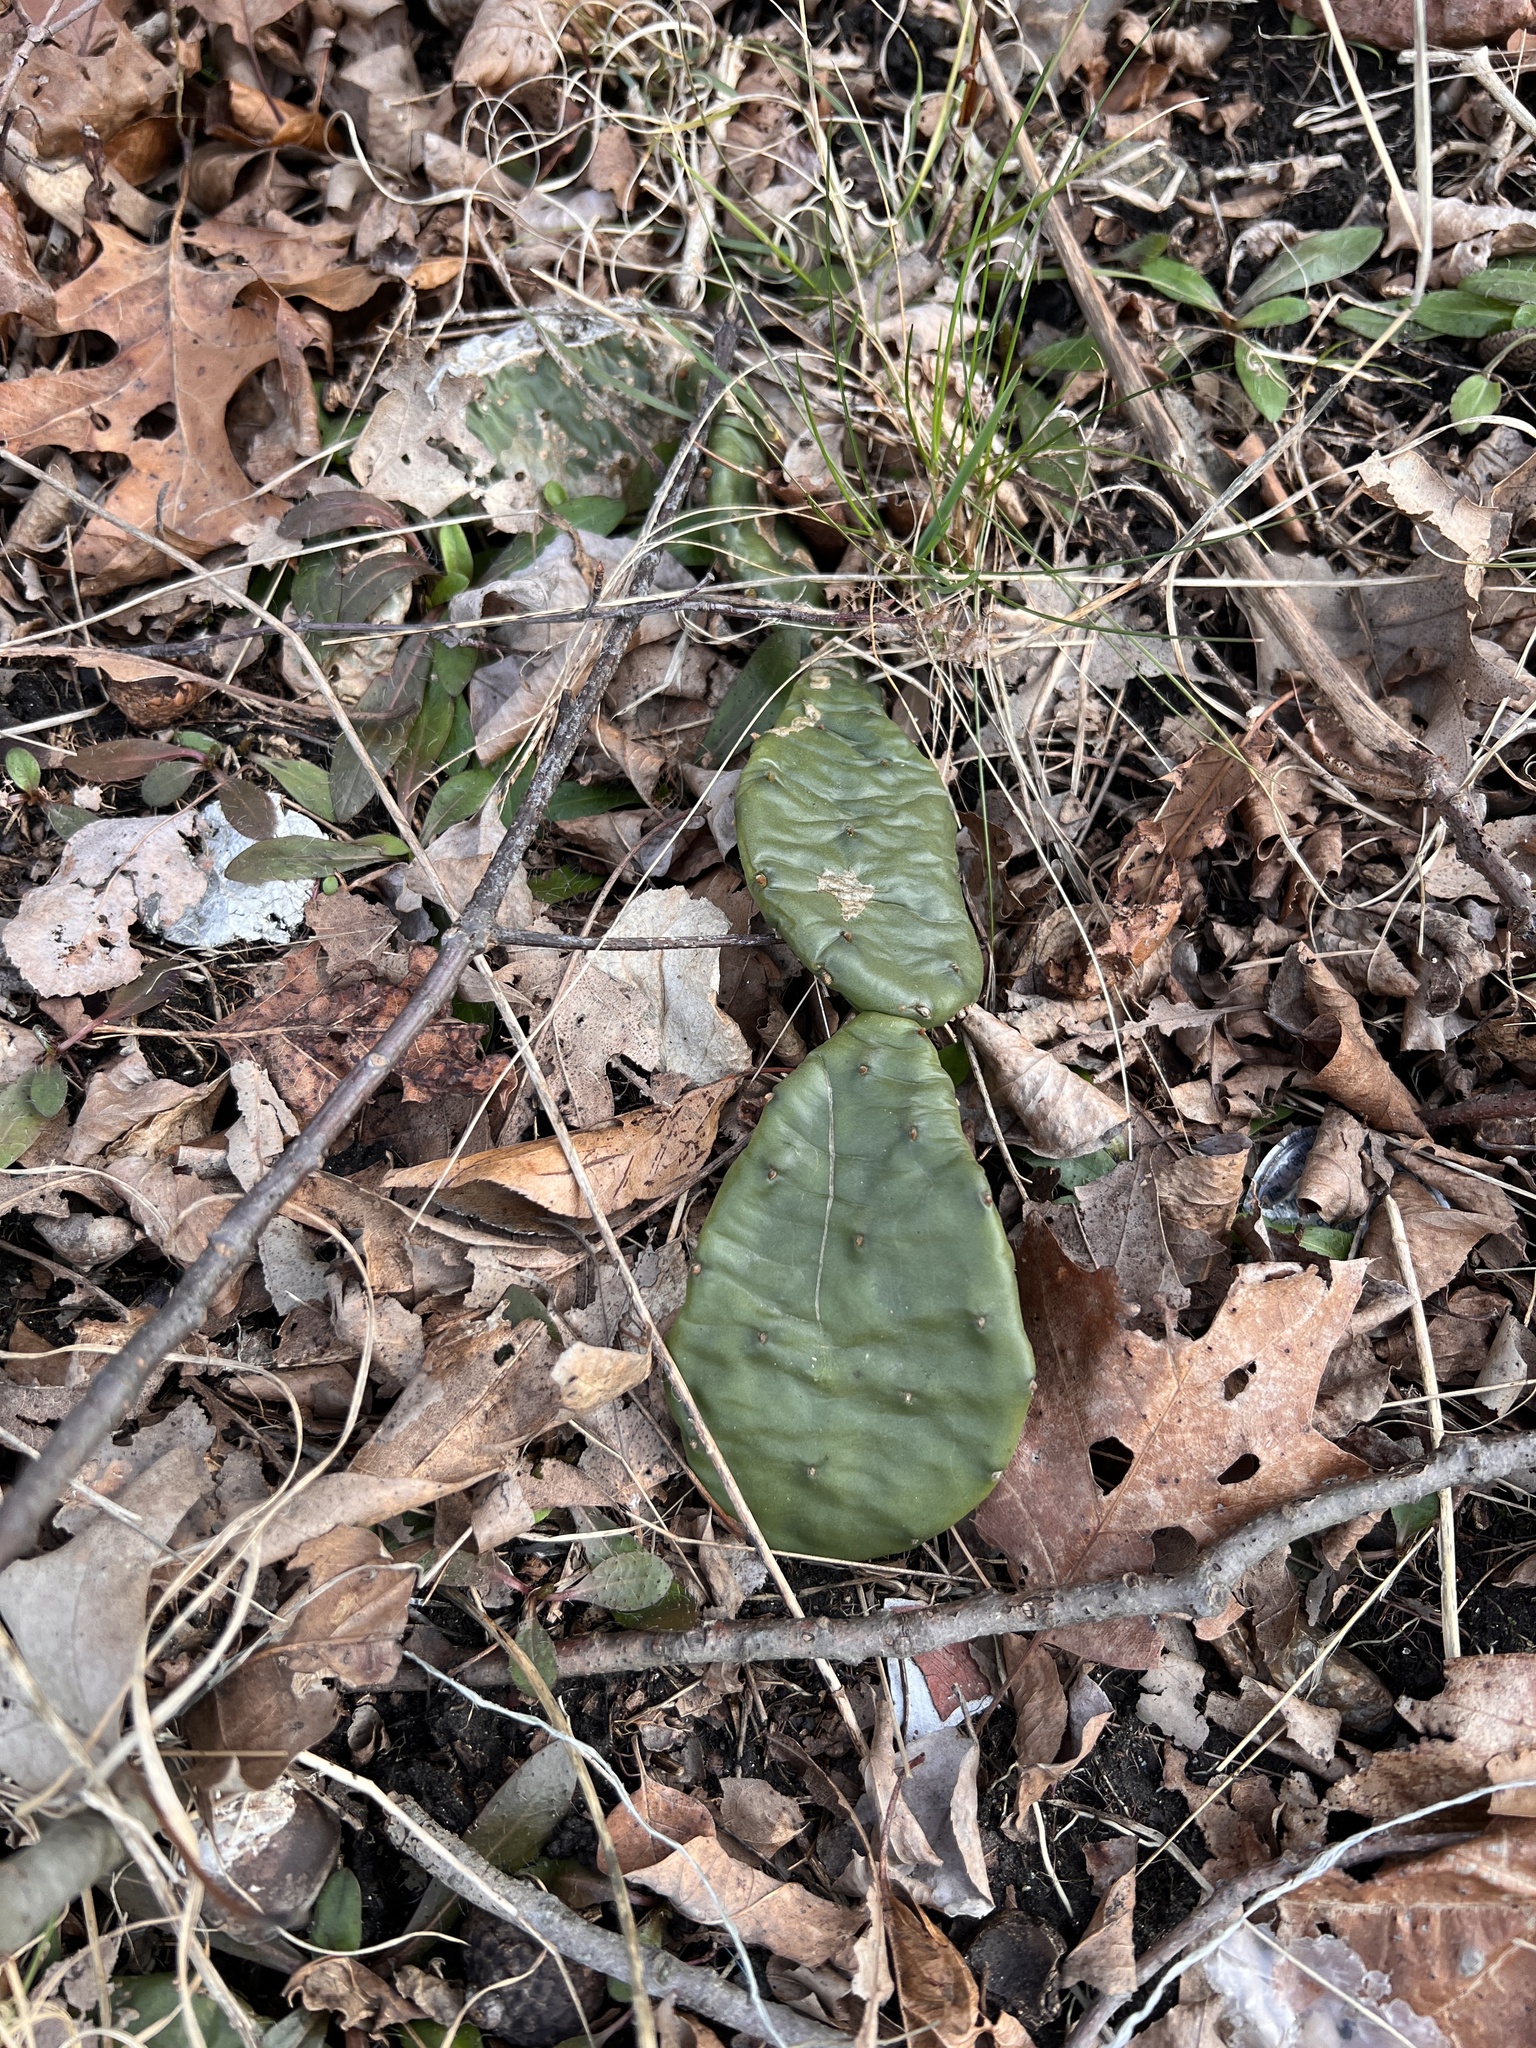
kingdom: Plantae
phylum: Tracheophyta
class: Magnoliopsida
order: Caryophyllales
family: Cactaceae
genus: Opuntia
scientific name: Opuntia humifusa
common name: Eastern prickly-pear
